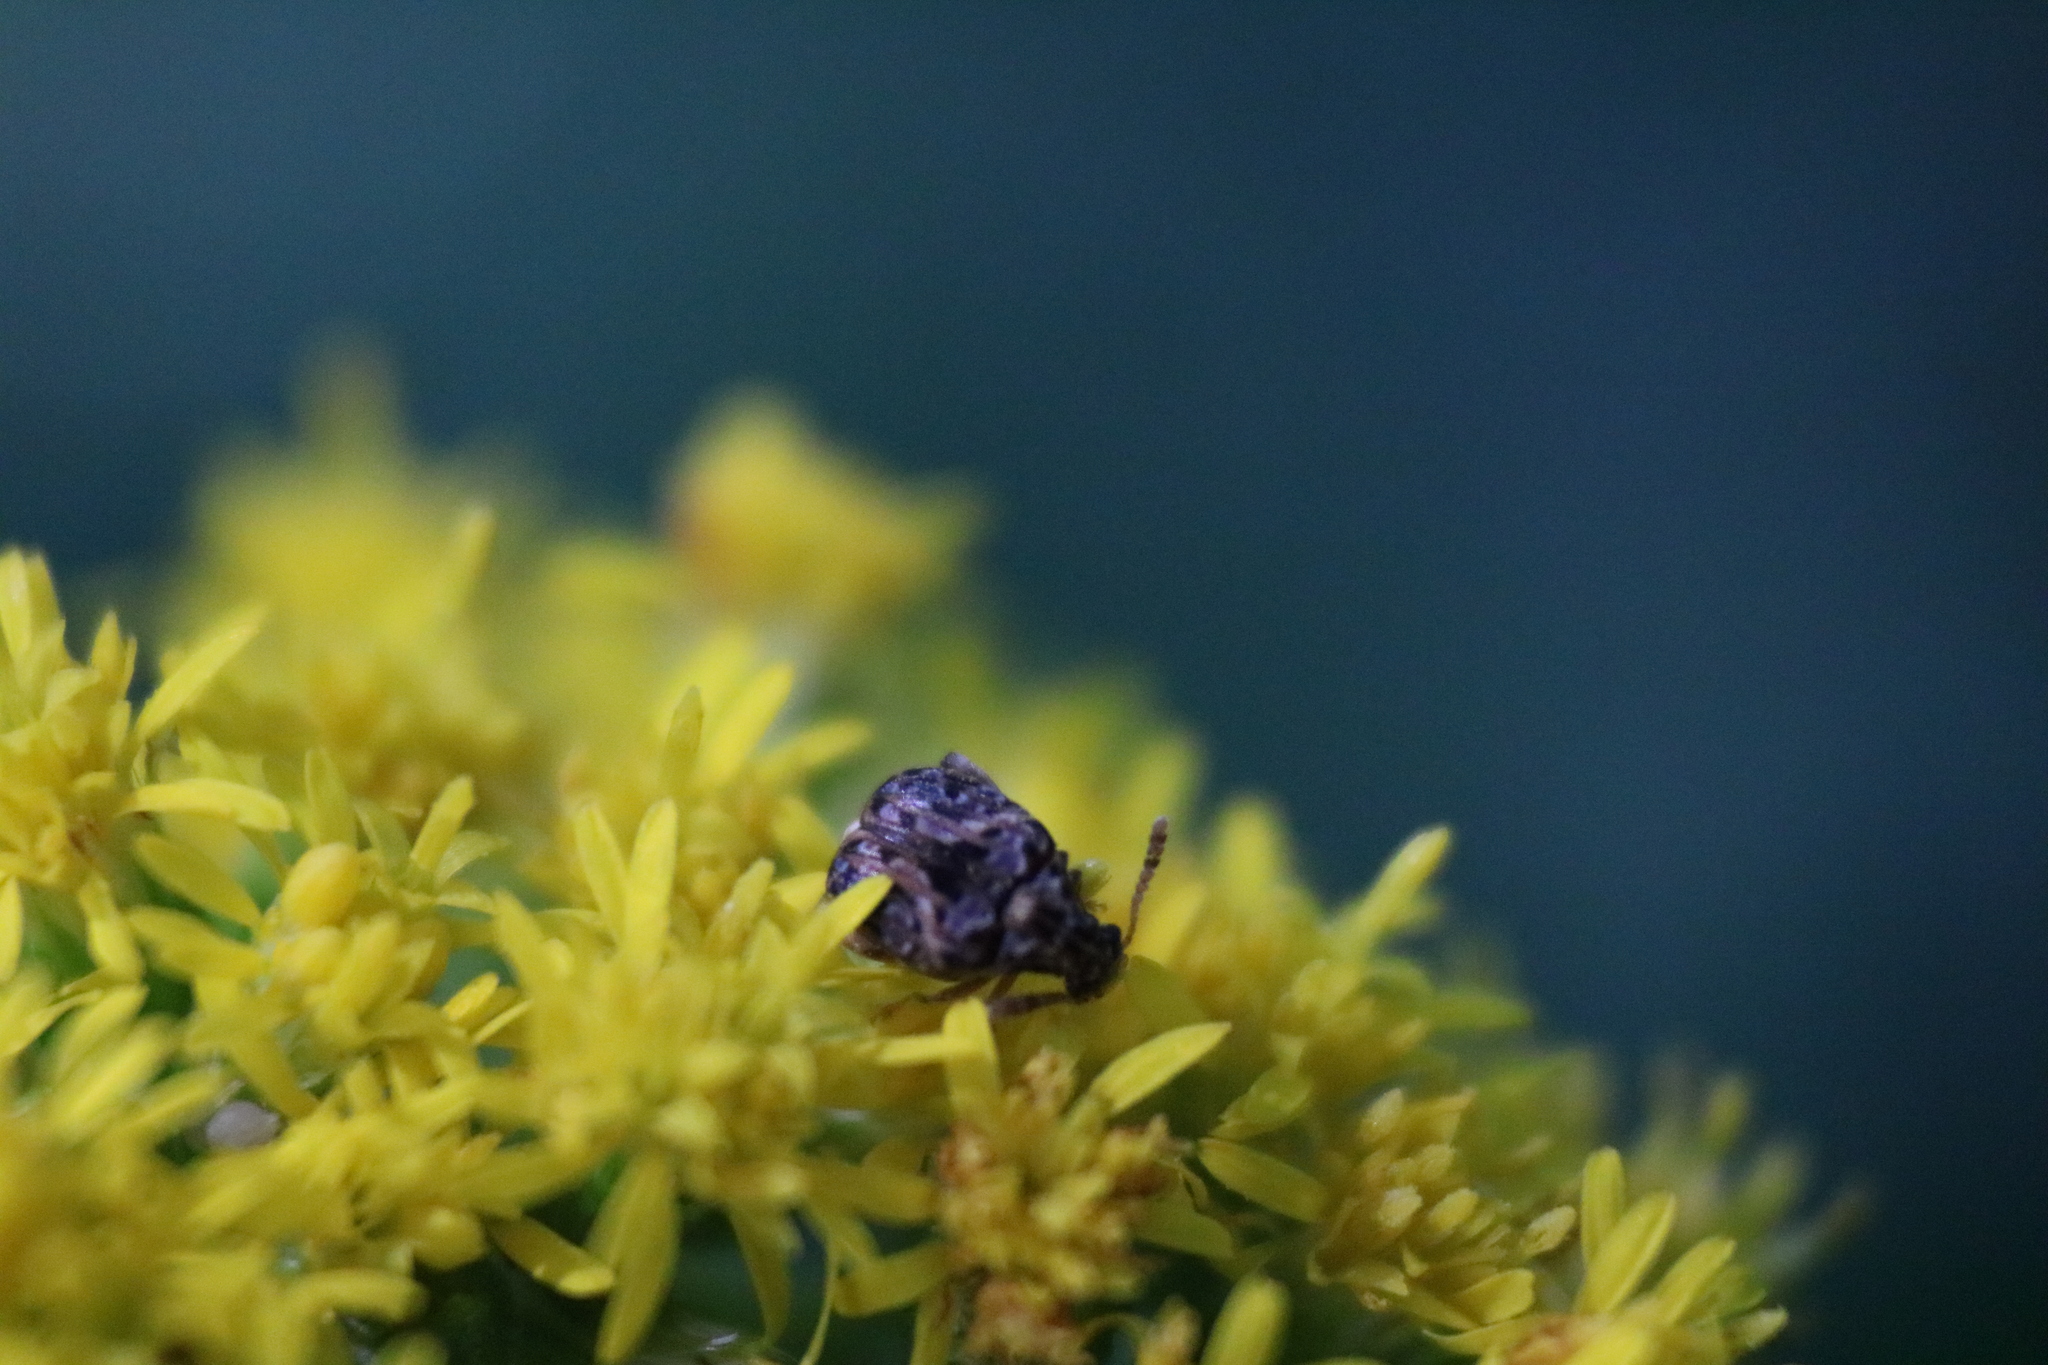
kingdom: Animalia
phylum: Arthropoda
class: Insecta
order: Coleoptera
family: Chrysomelidae
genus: Gibbobruchus
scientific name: Gibbobruchus mimus
